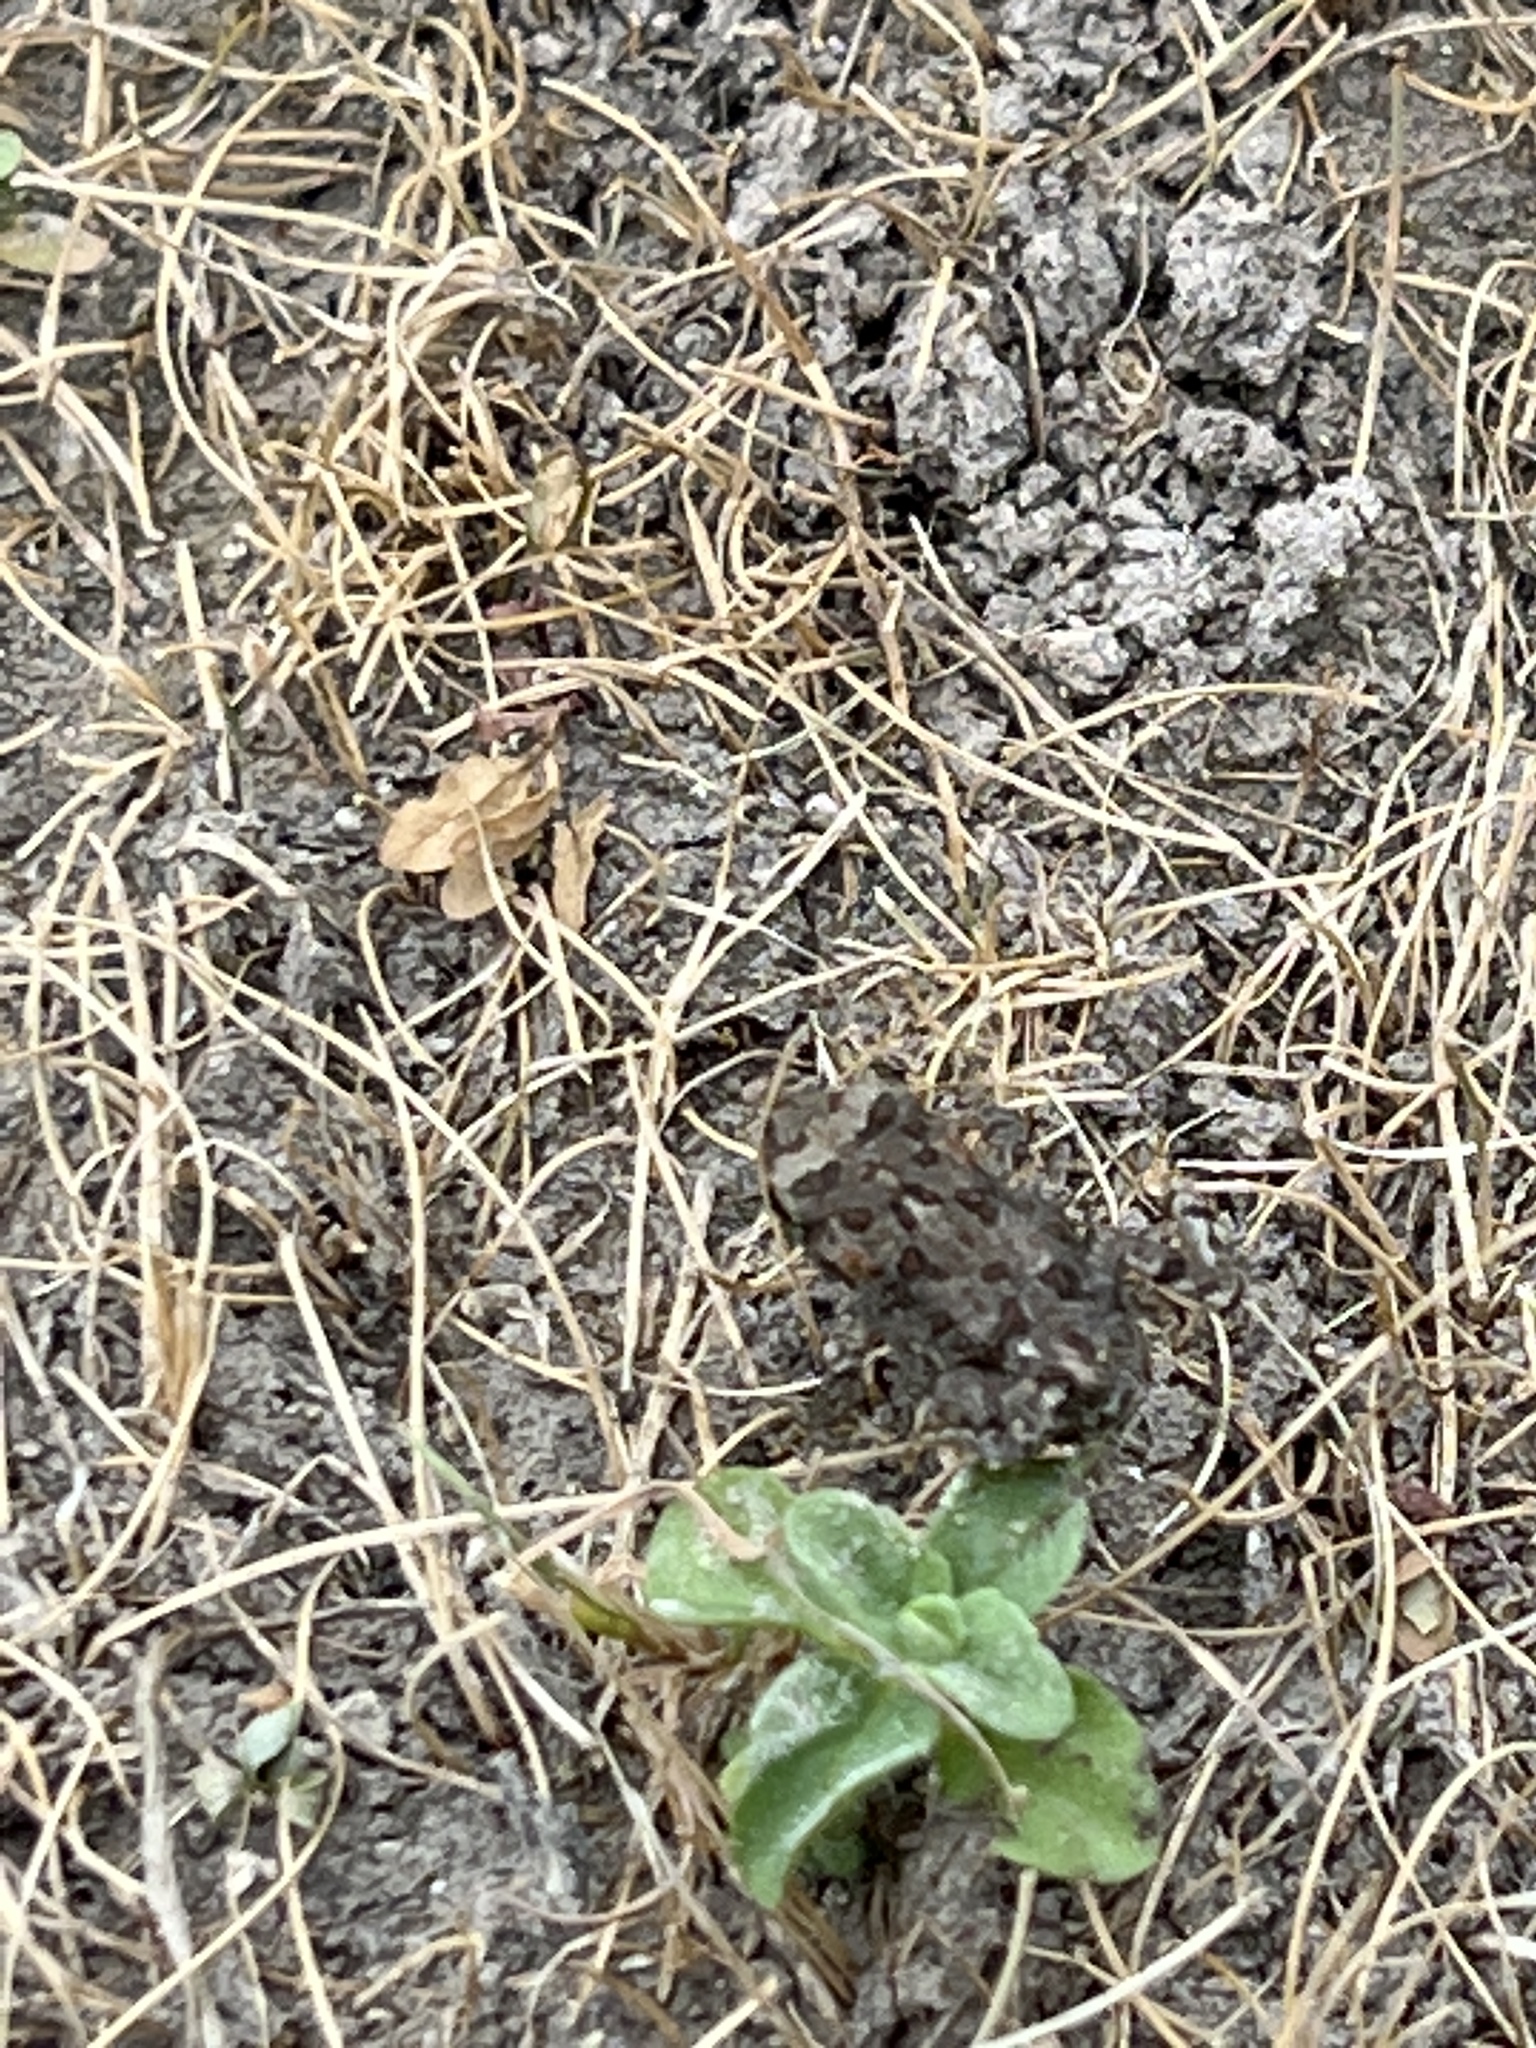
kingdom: Animalia
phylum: Chordata
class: Amphibia
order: Anura
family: Bufonidae
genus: Anaxyrus
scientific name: Anaxyrus boreas
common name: Western toad
